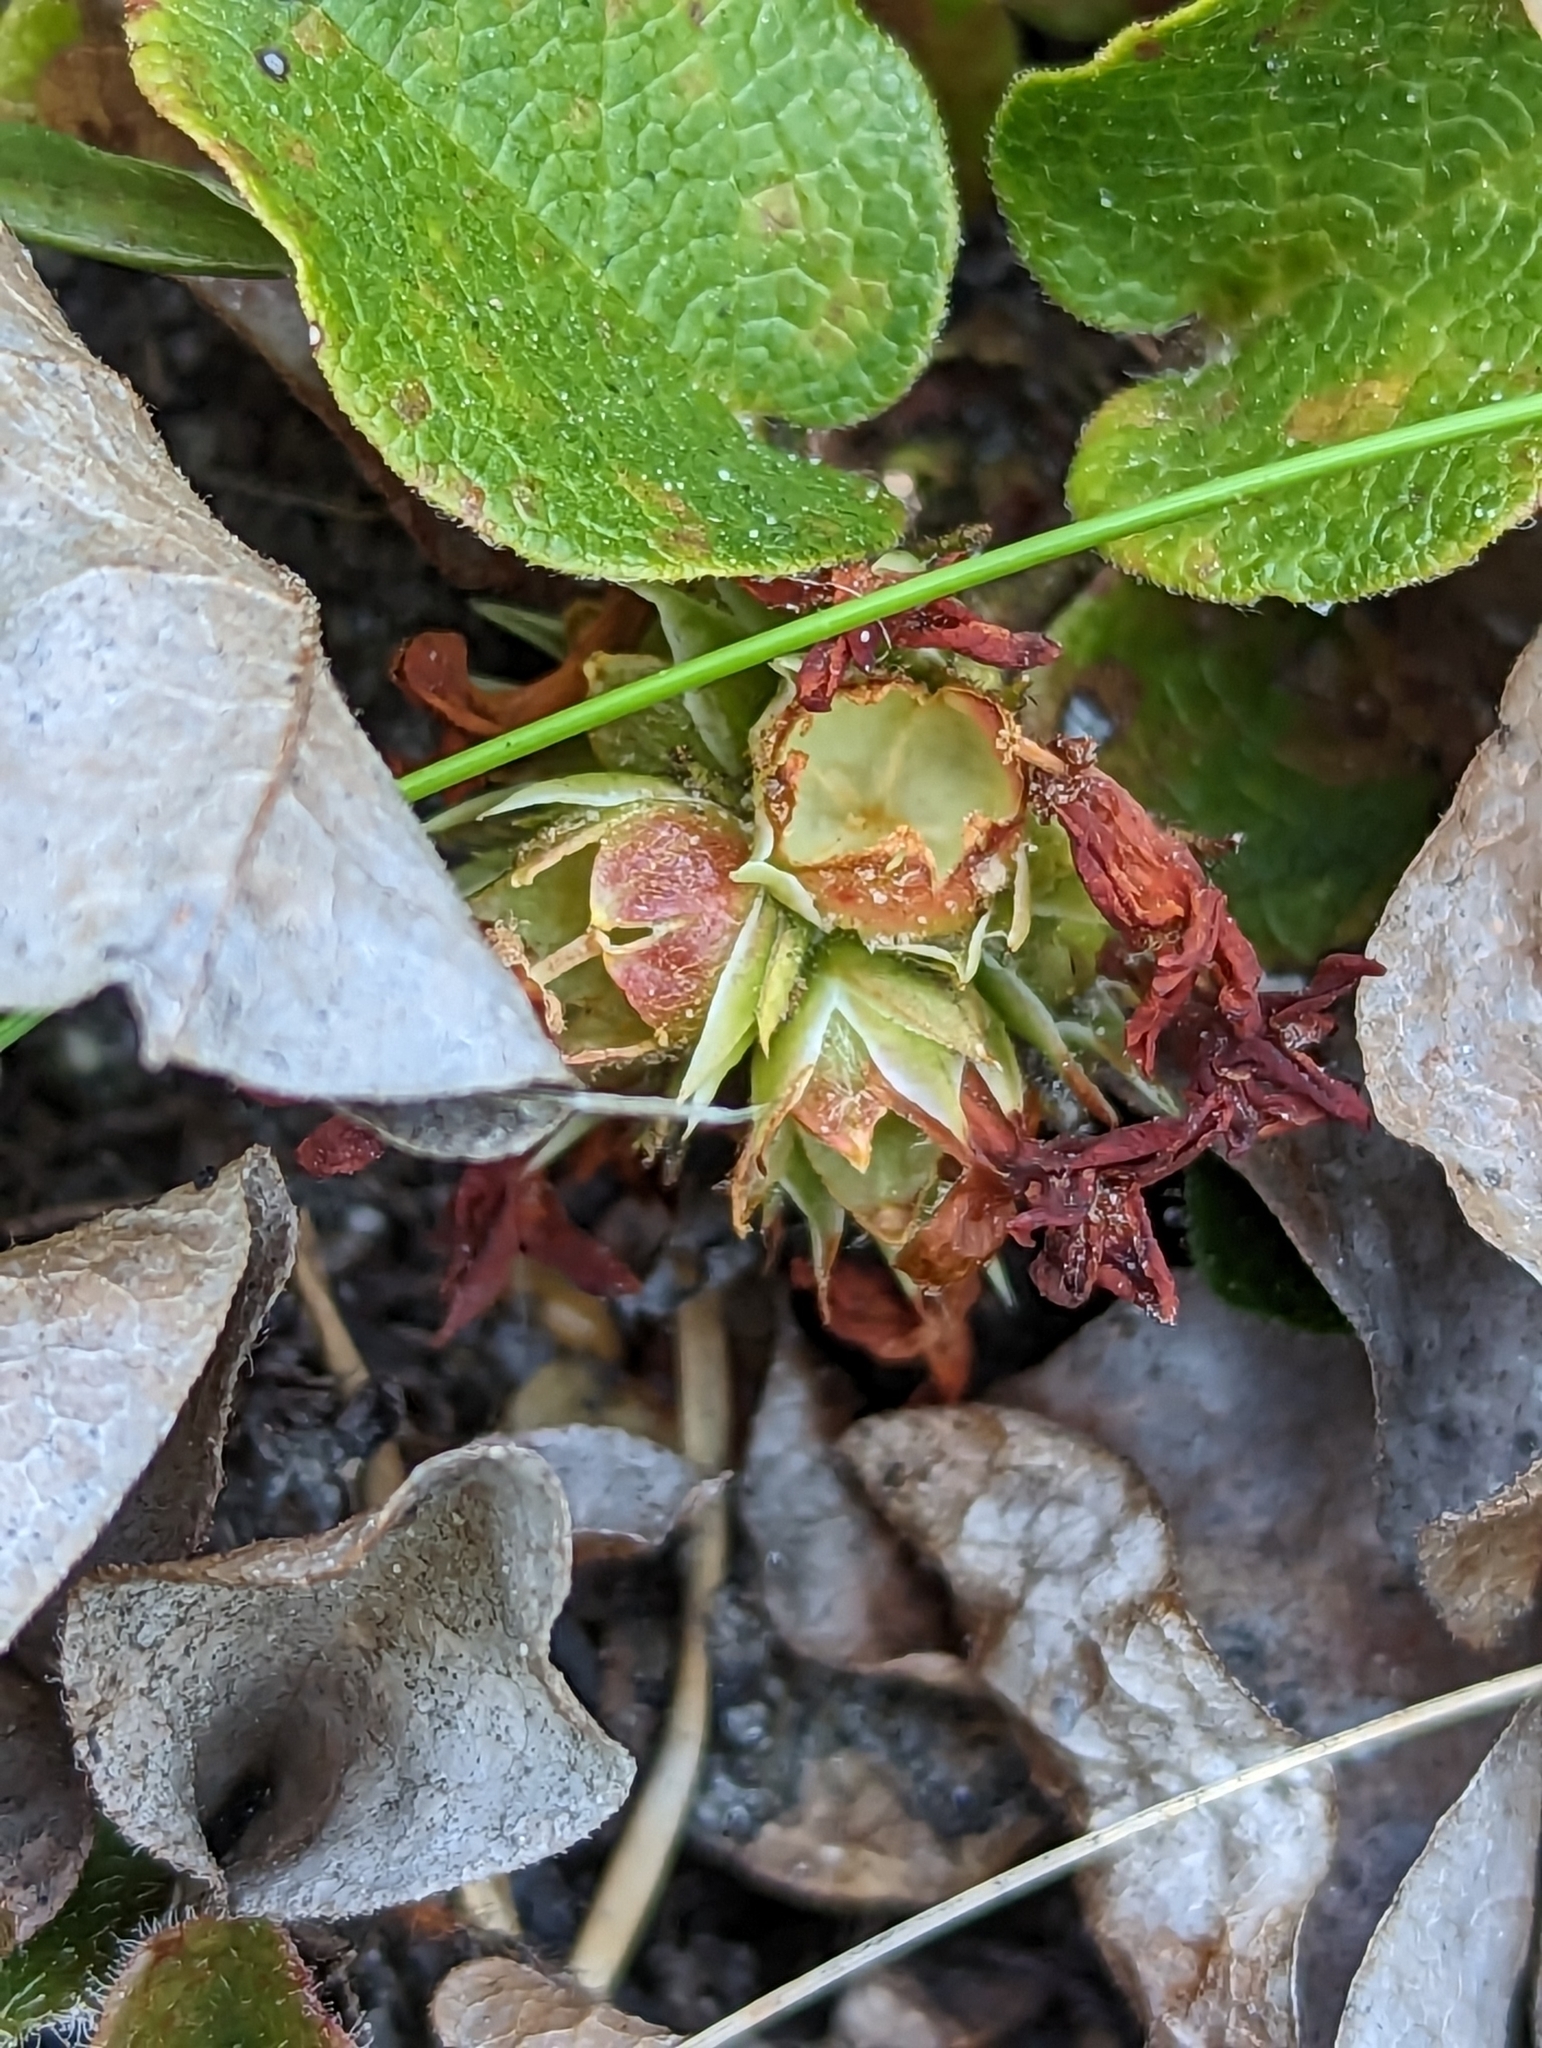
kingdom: Plantae
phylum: Tracheophyta
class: Magnoliopsida
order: Ericales
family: Ericaceae
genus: Epigaea
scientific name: Epigaea repens
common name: Gravelroot
